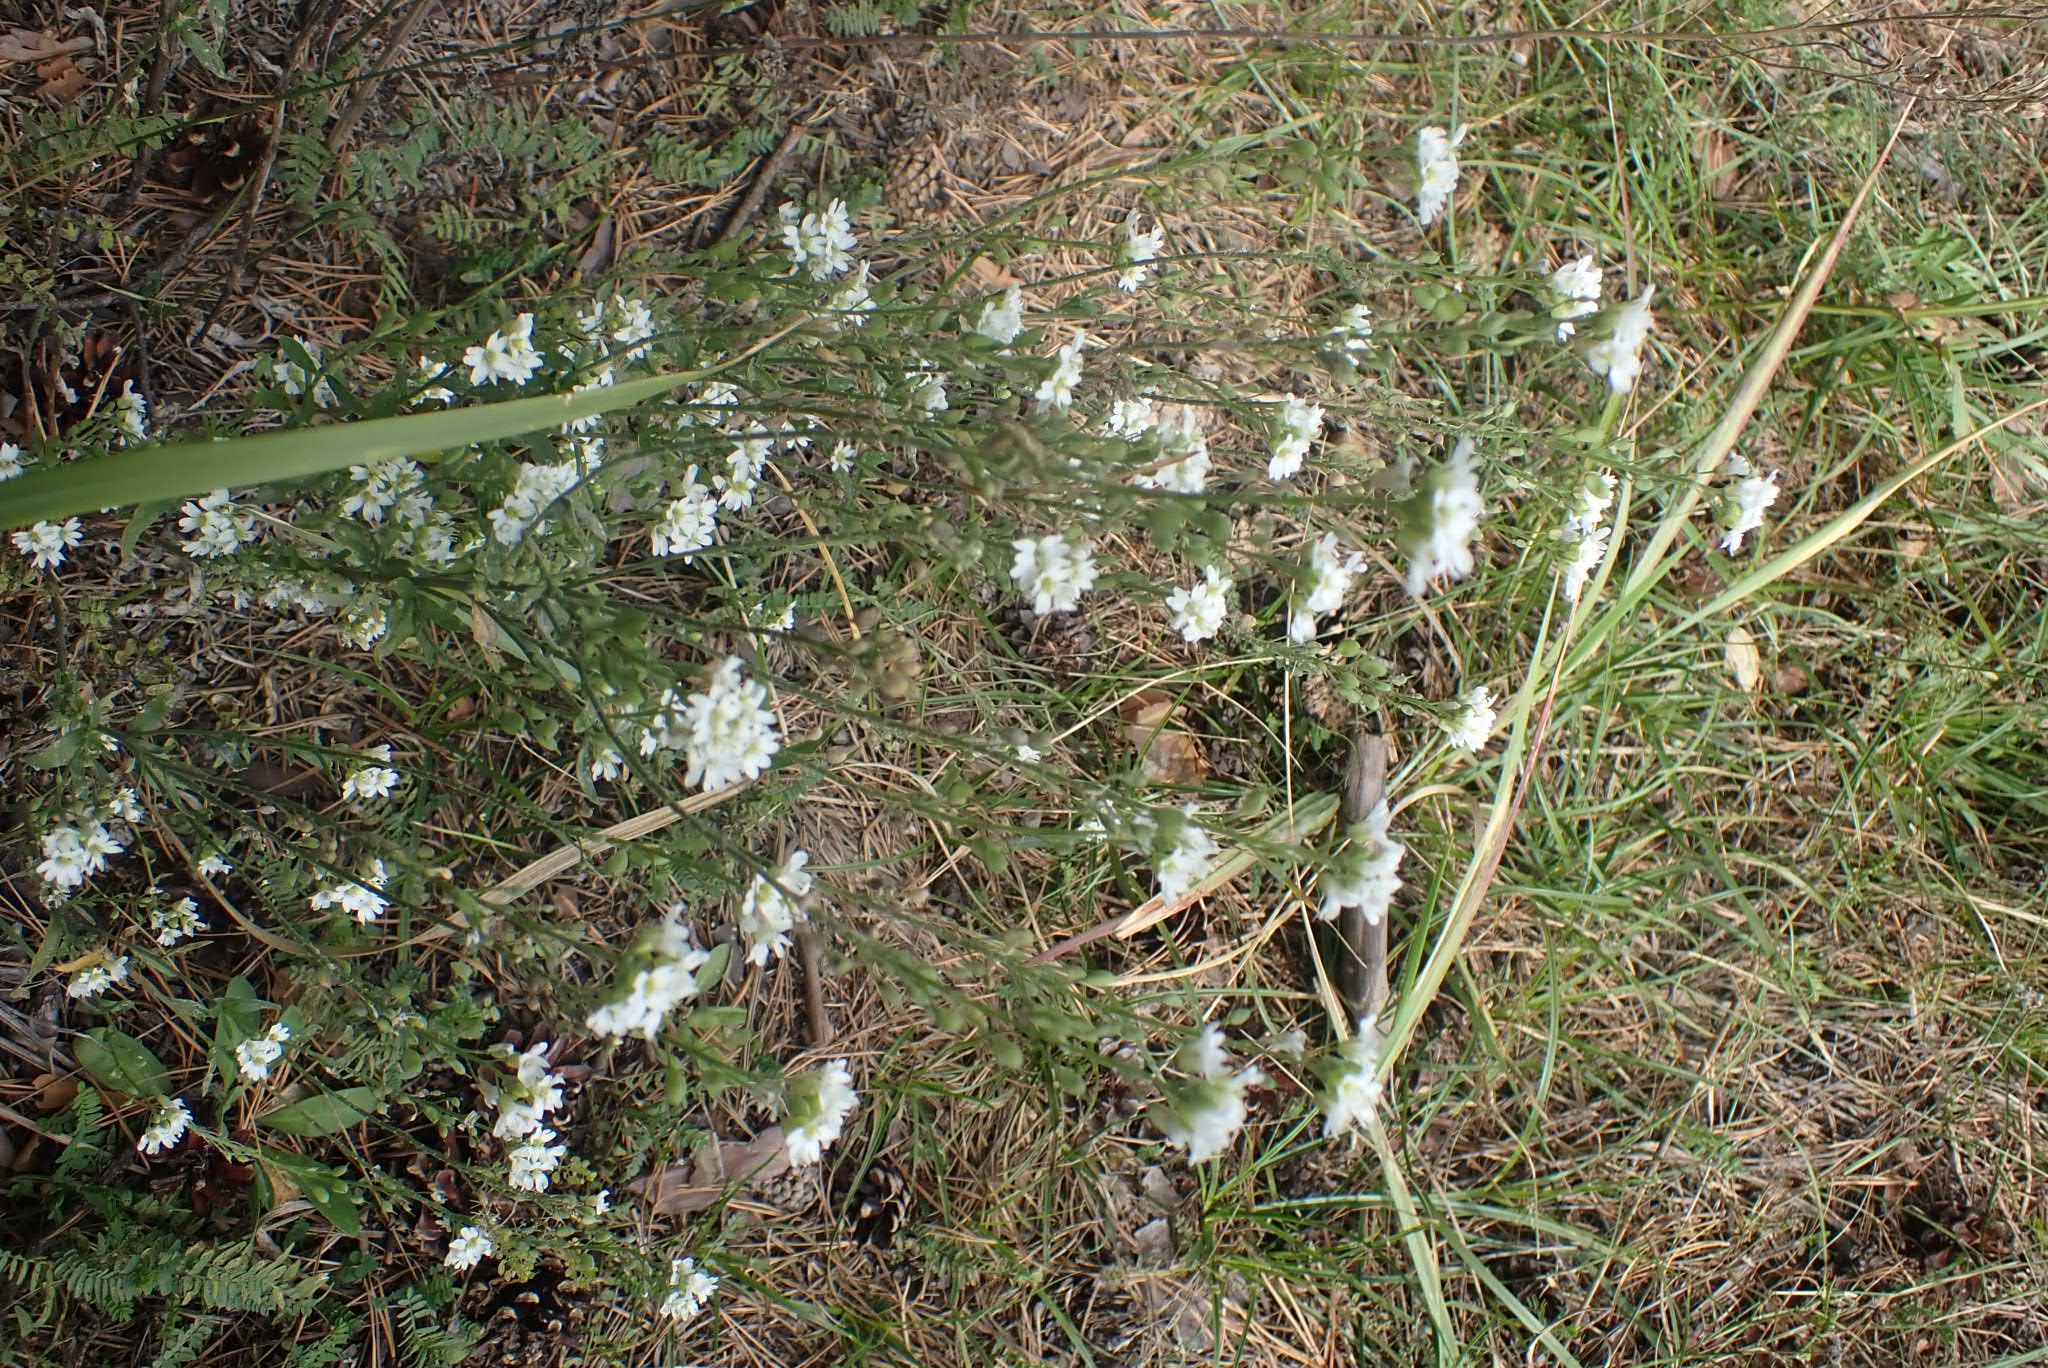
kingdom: Plantae
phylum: Tracheophyta
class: Magnoliopsida
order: Brassicales
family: Brassicaceae
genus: Berteroa
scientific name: Berteroa incana
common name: Hoary alison
